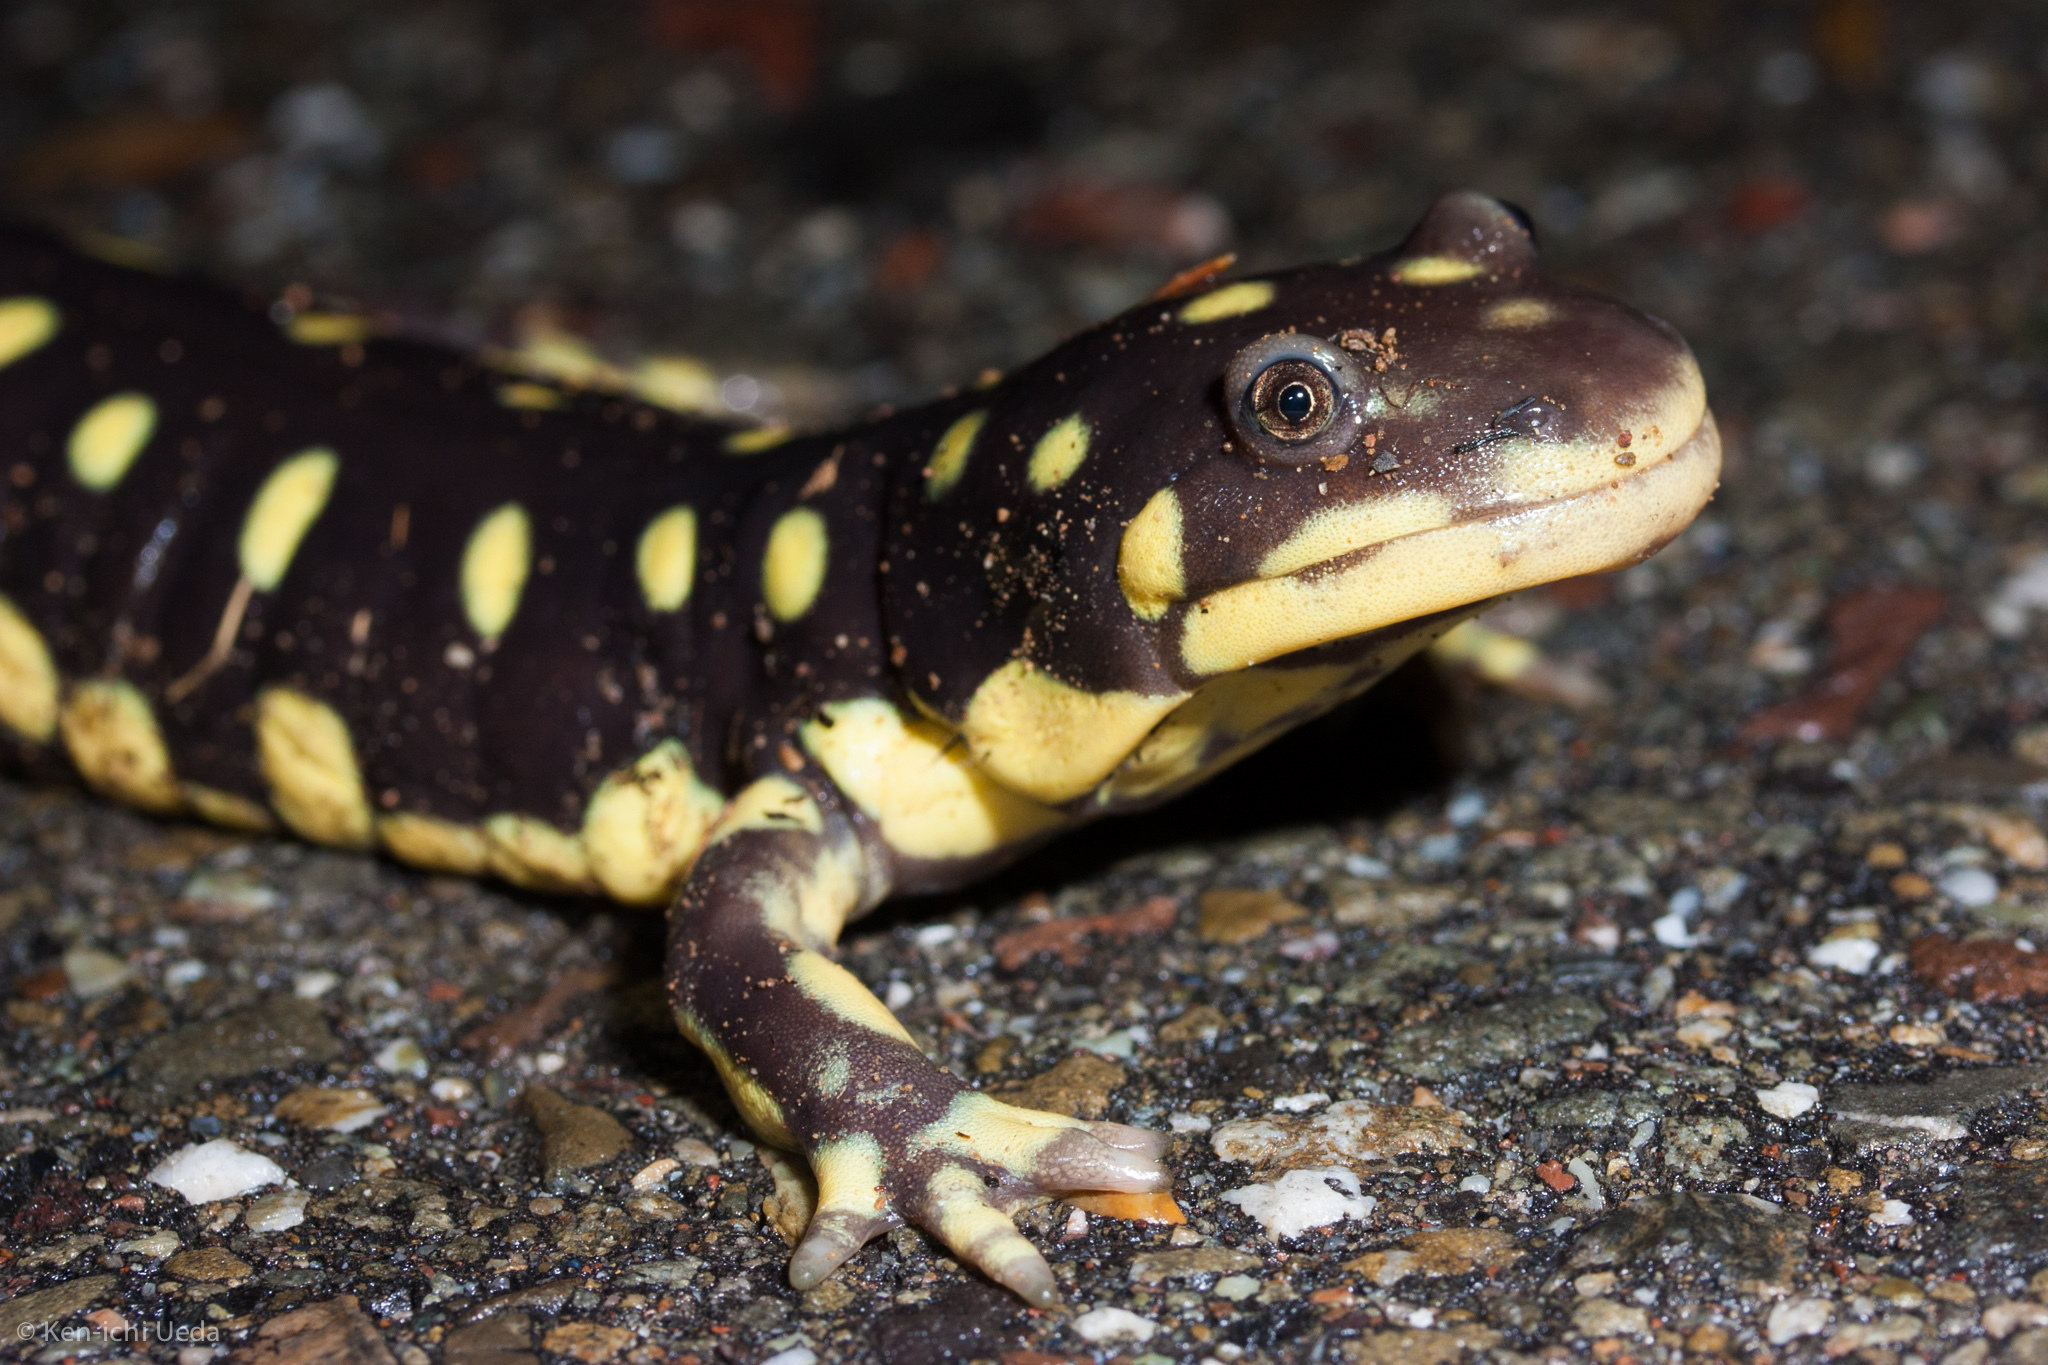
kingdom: Animalia
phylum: Chordata
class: Amphibia
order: Caudata
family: Ambystomatidae
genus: Ambystoma
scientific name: Ambystoma californiense
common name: California tiger salamander
